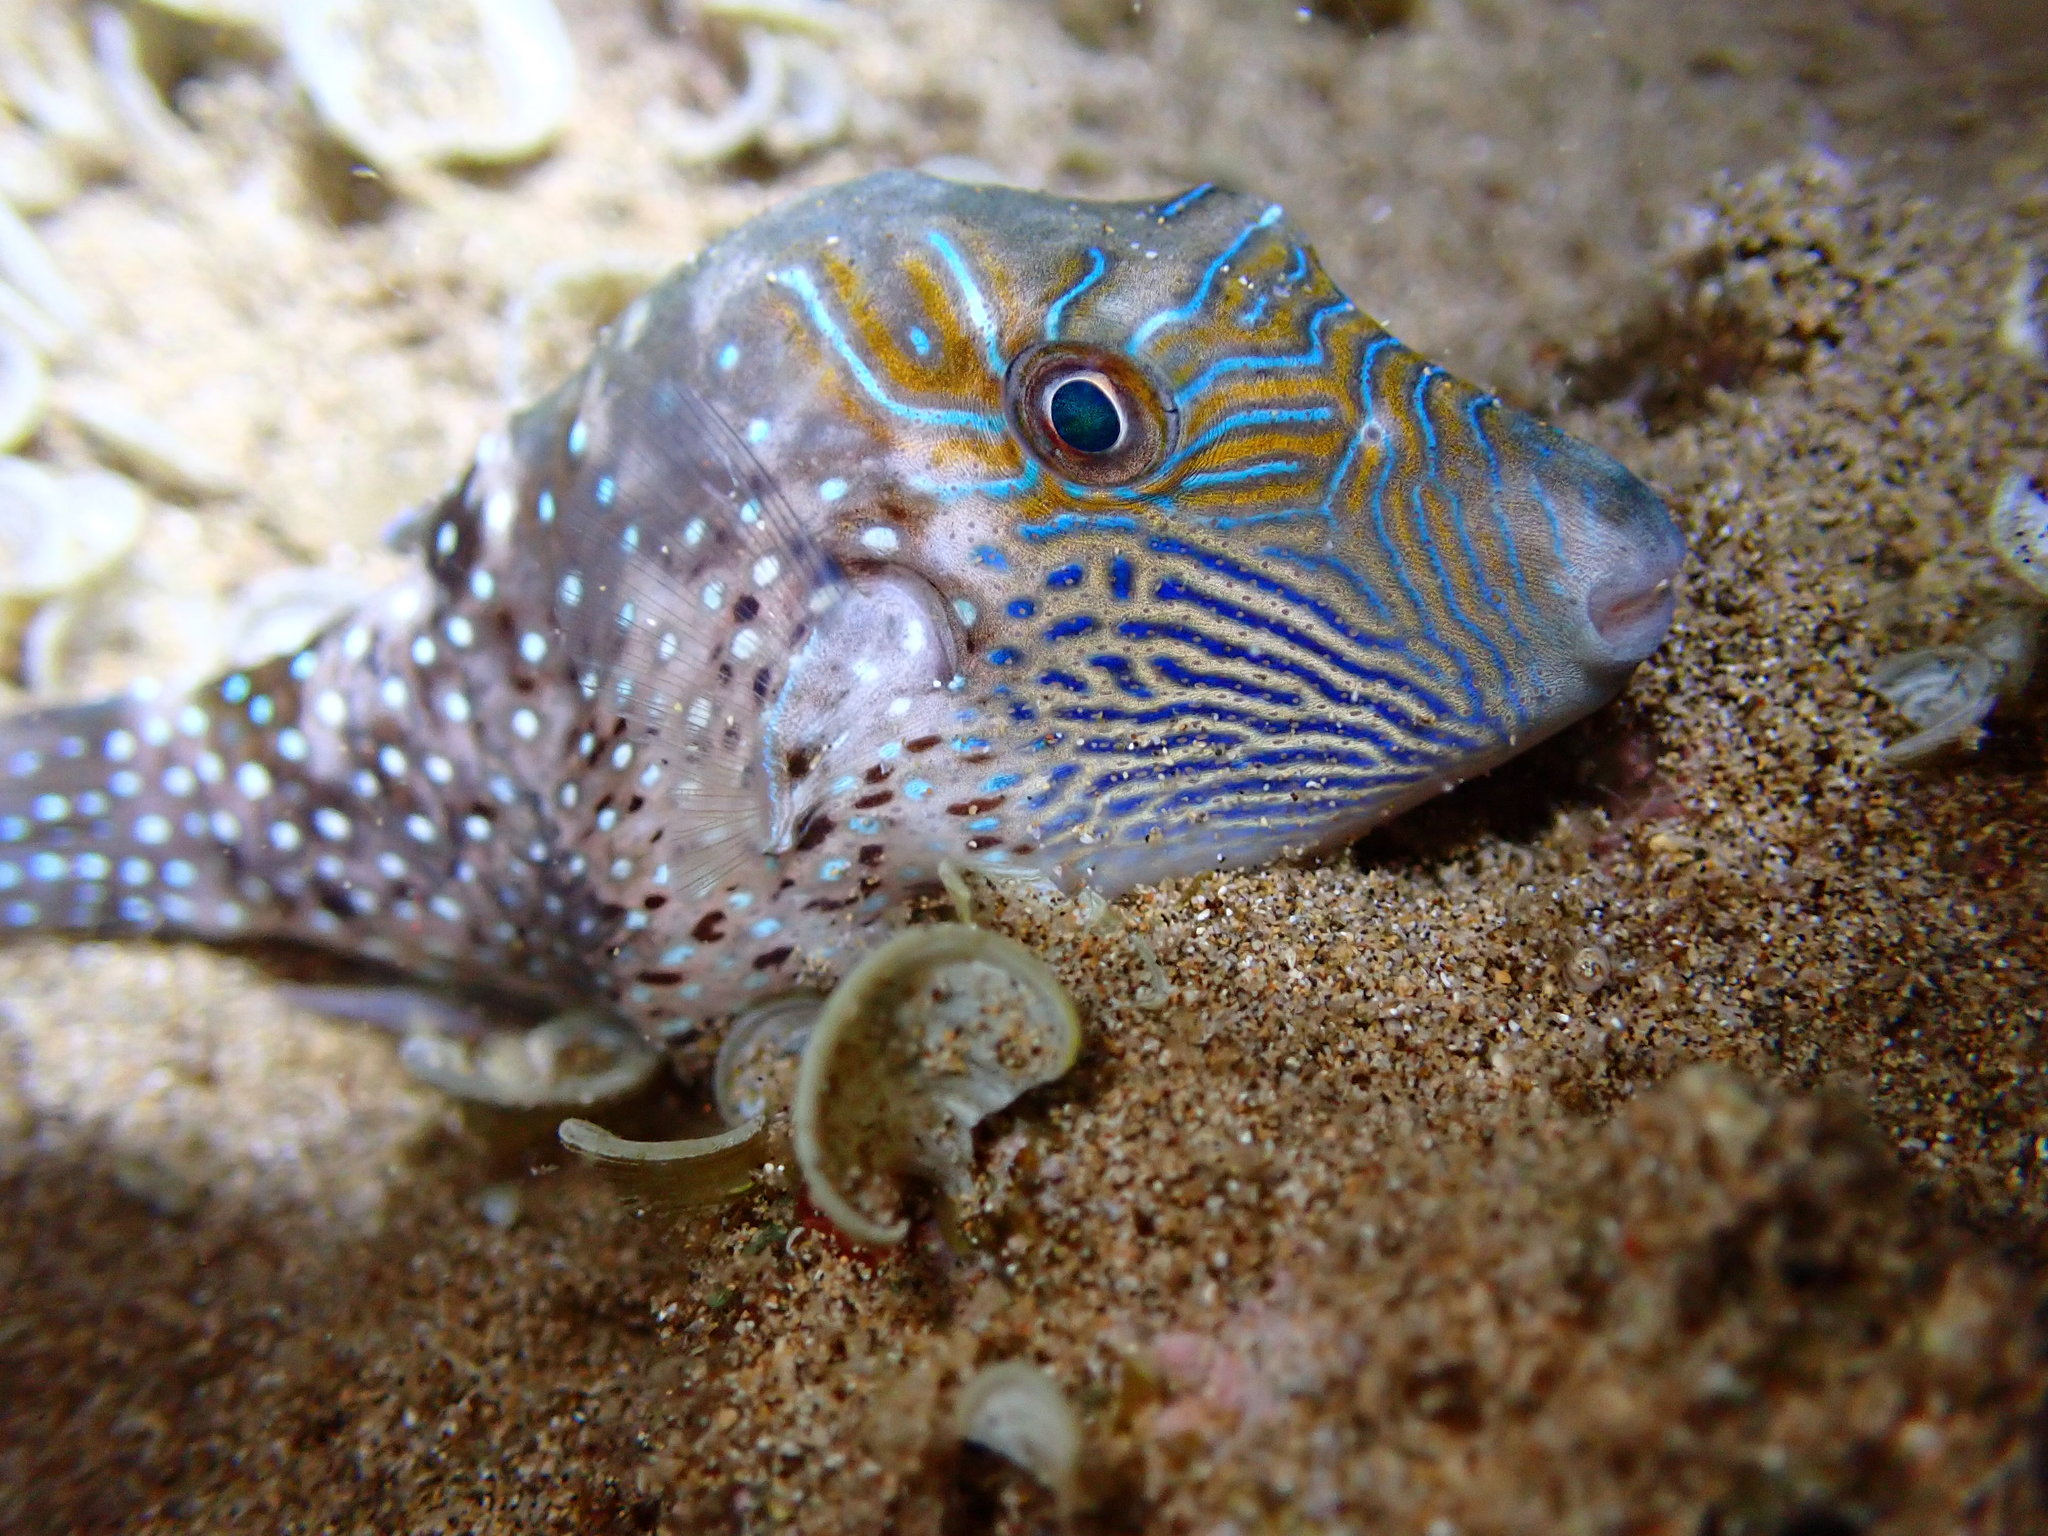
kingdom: Animalia
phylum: Chordata
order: Tetraodontiformes
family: Tetraodontidae
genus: Canthigaster
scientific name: Canthigaster amboinensis
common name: Ambon pufferfish
